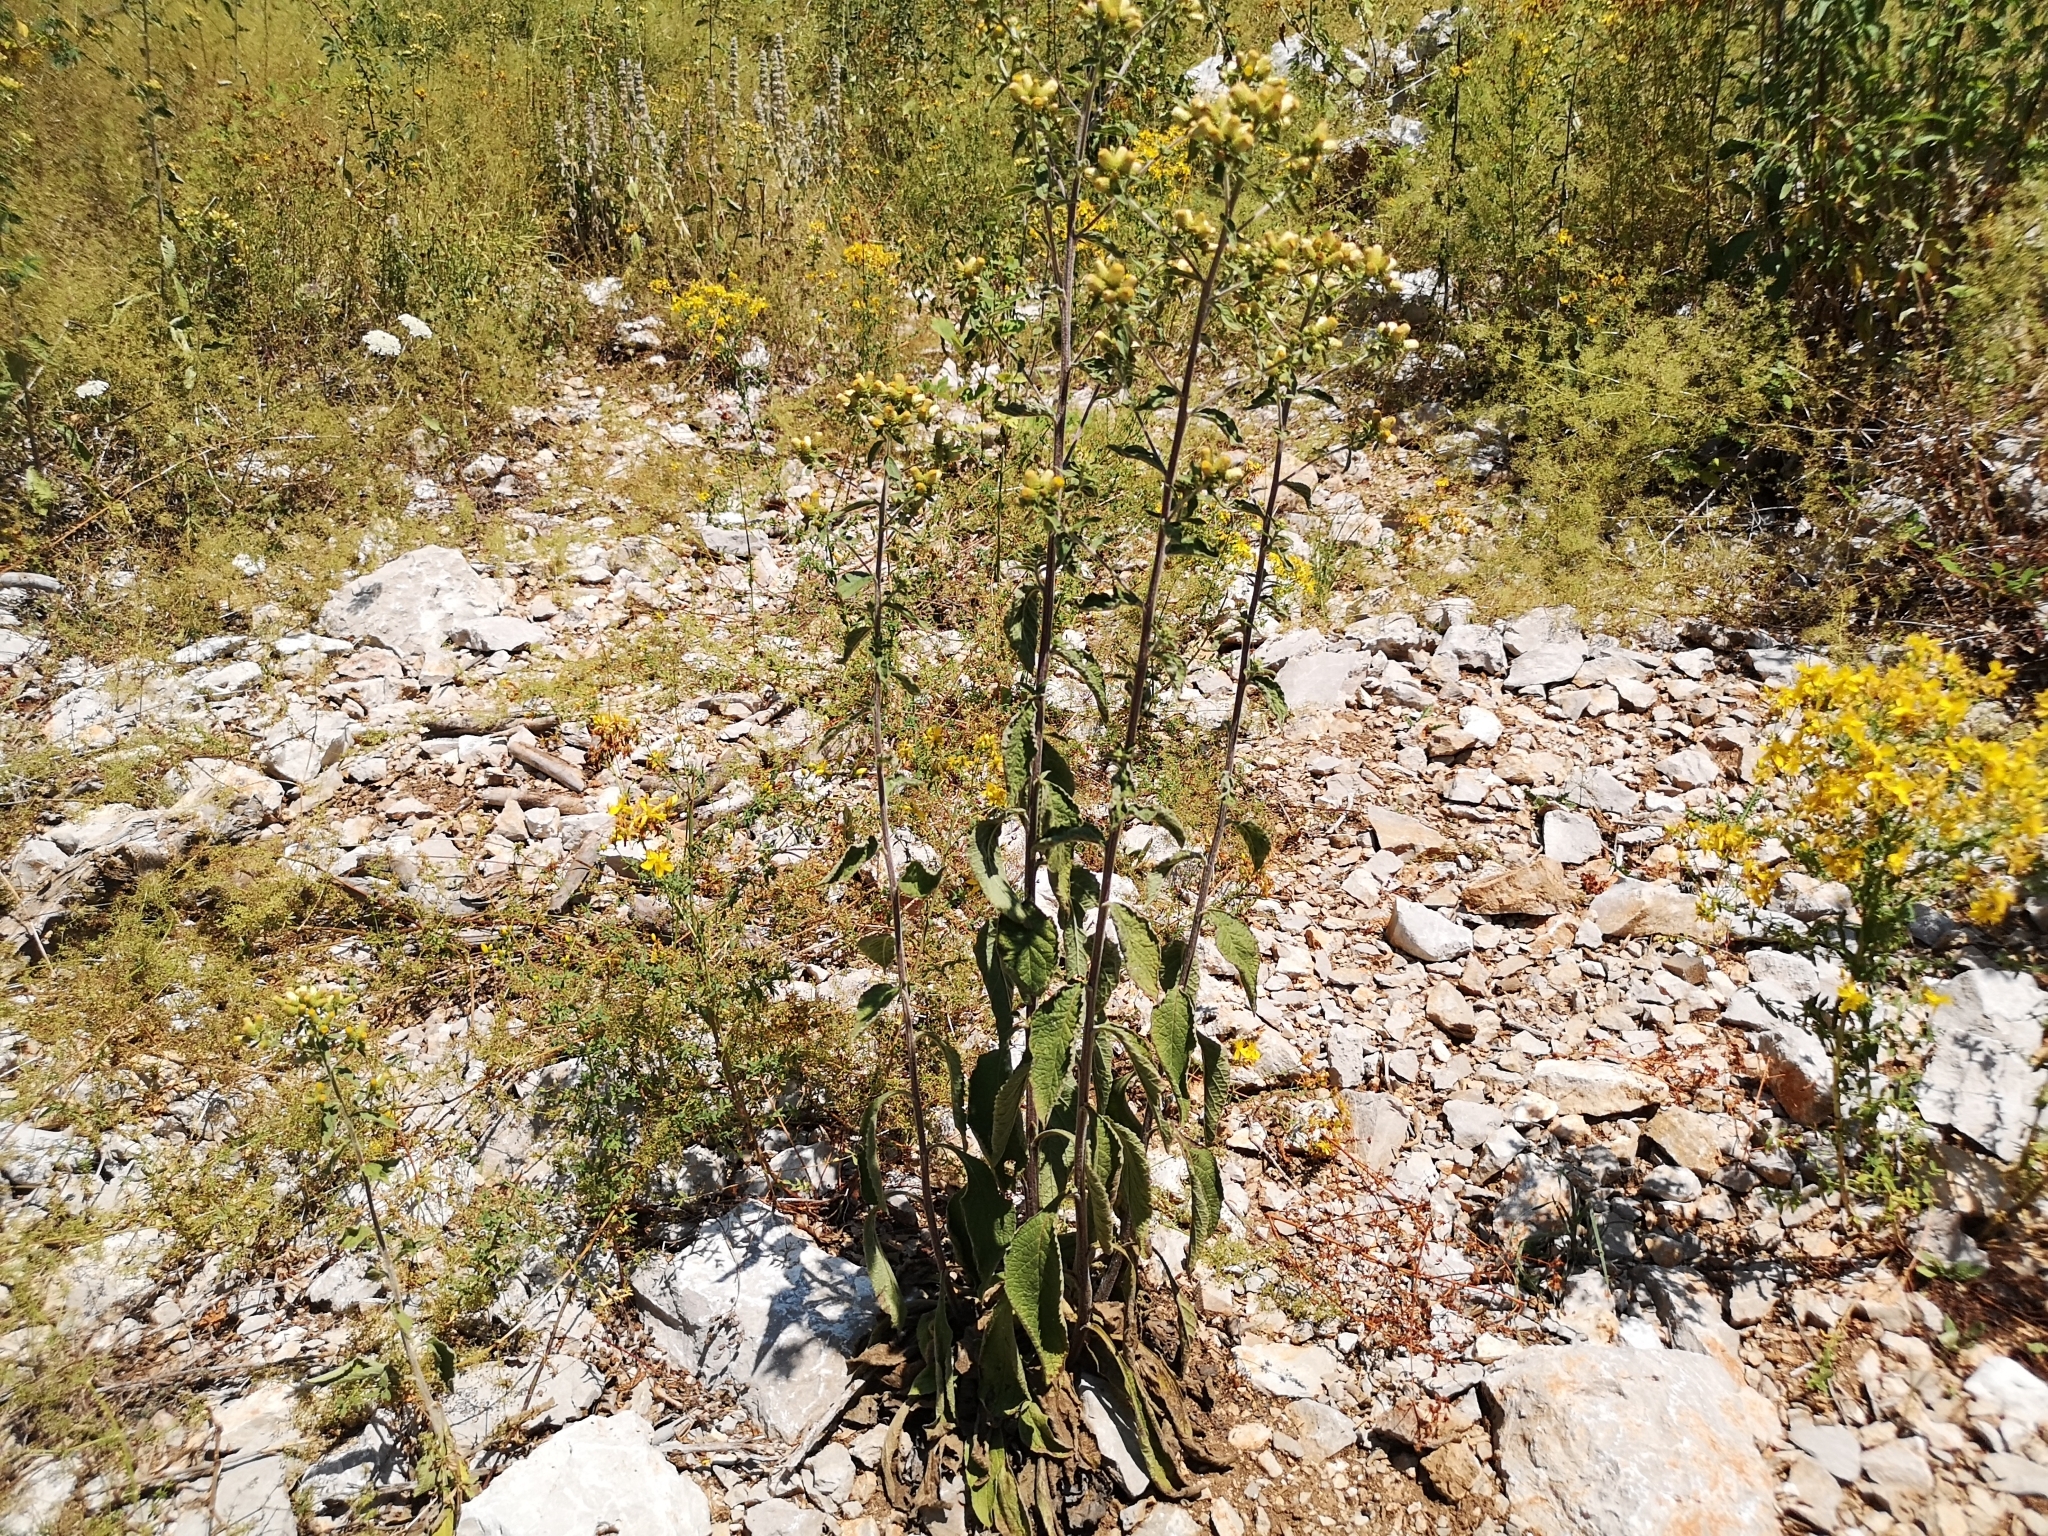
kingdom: Plantae
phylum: Tracheophyta
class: Magnoliopsida
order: Asterales
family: Asteraceae
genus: Pentanema
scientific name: Pentanema squarrosum
